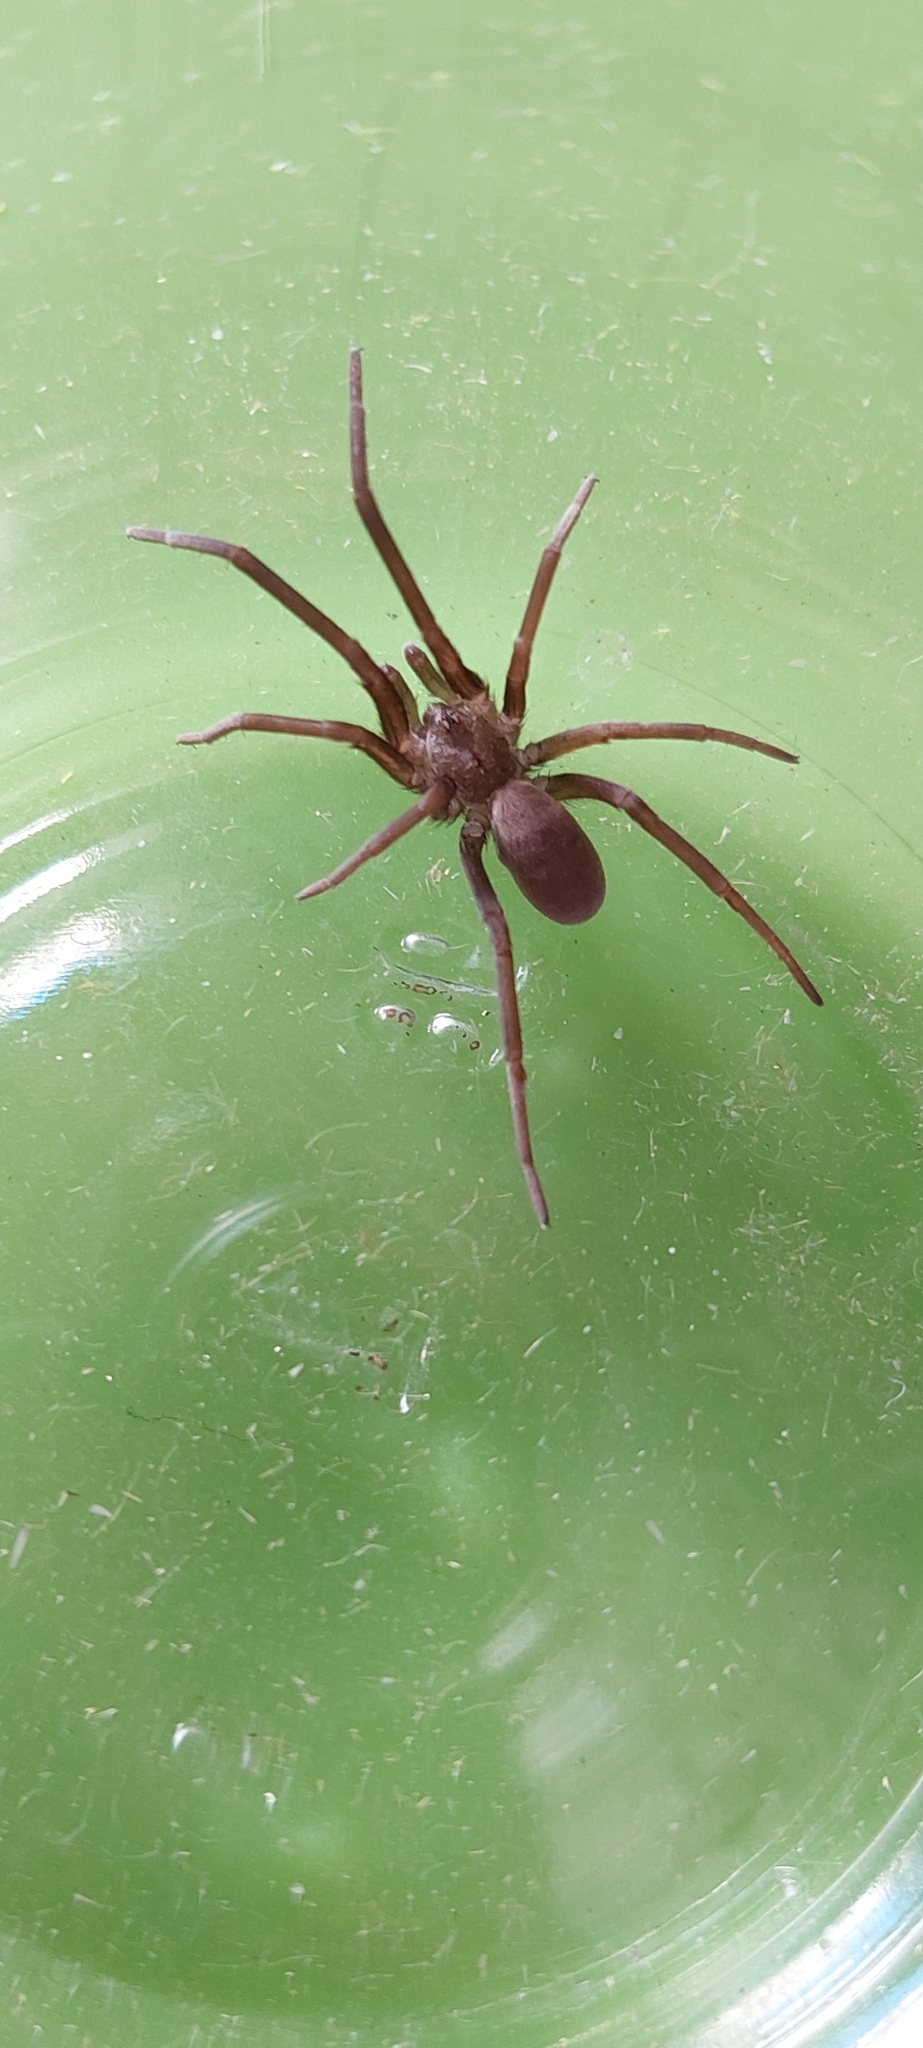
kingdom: Animalia
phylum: Arthropoda
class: Arachnida
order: Araneae
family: Filistatidae
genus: Kukulcania
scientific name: Kukulcania hibernalis
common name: Crevice weaver
